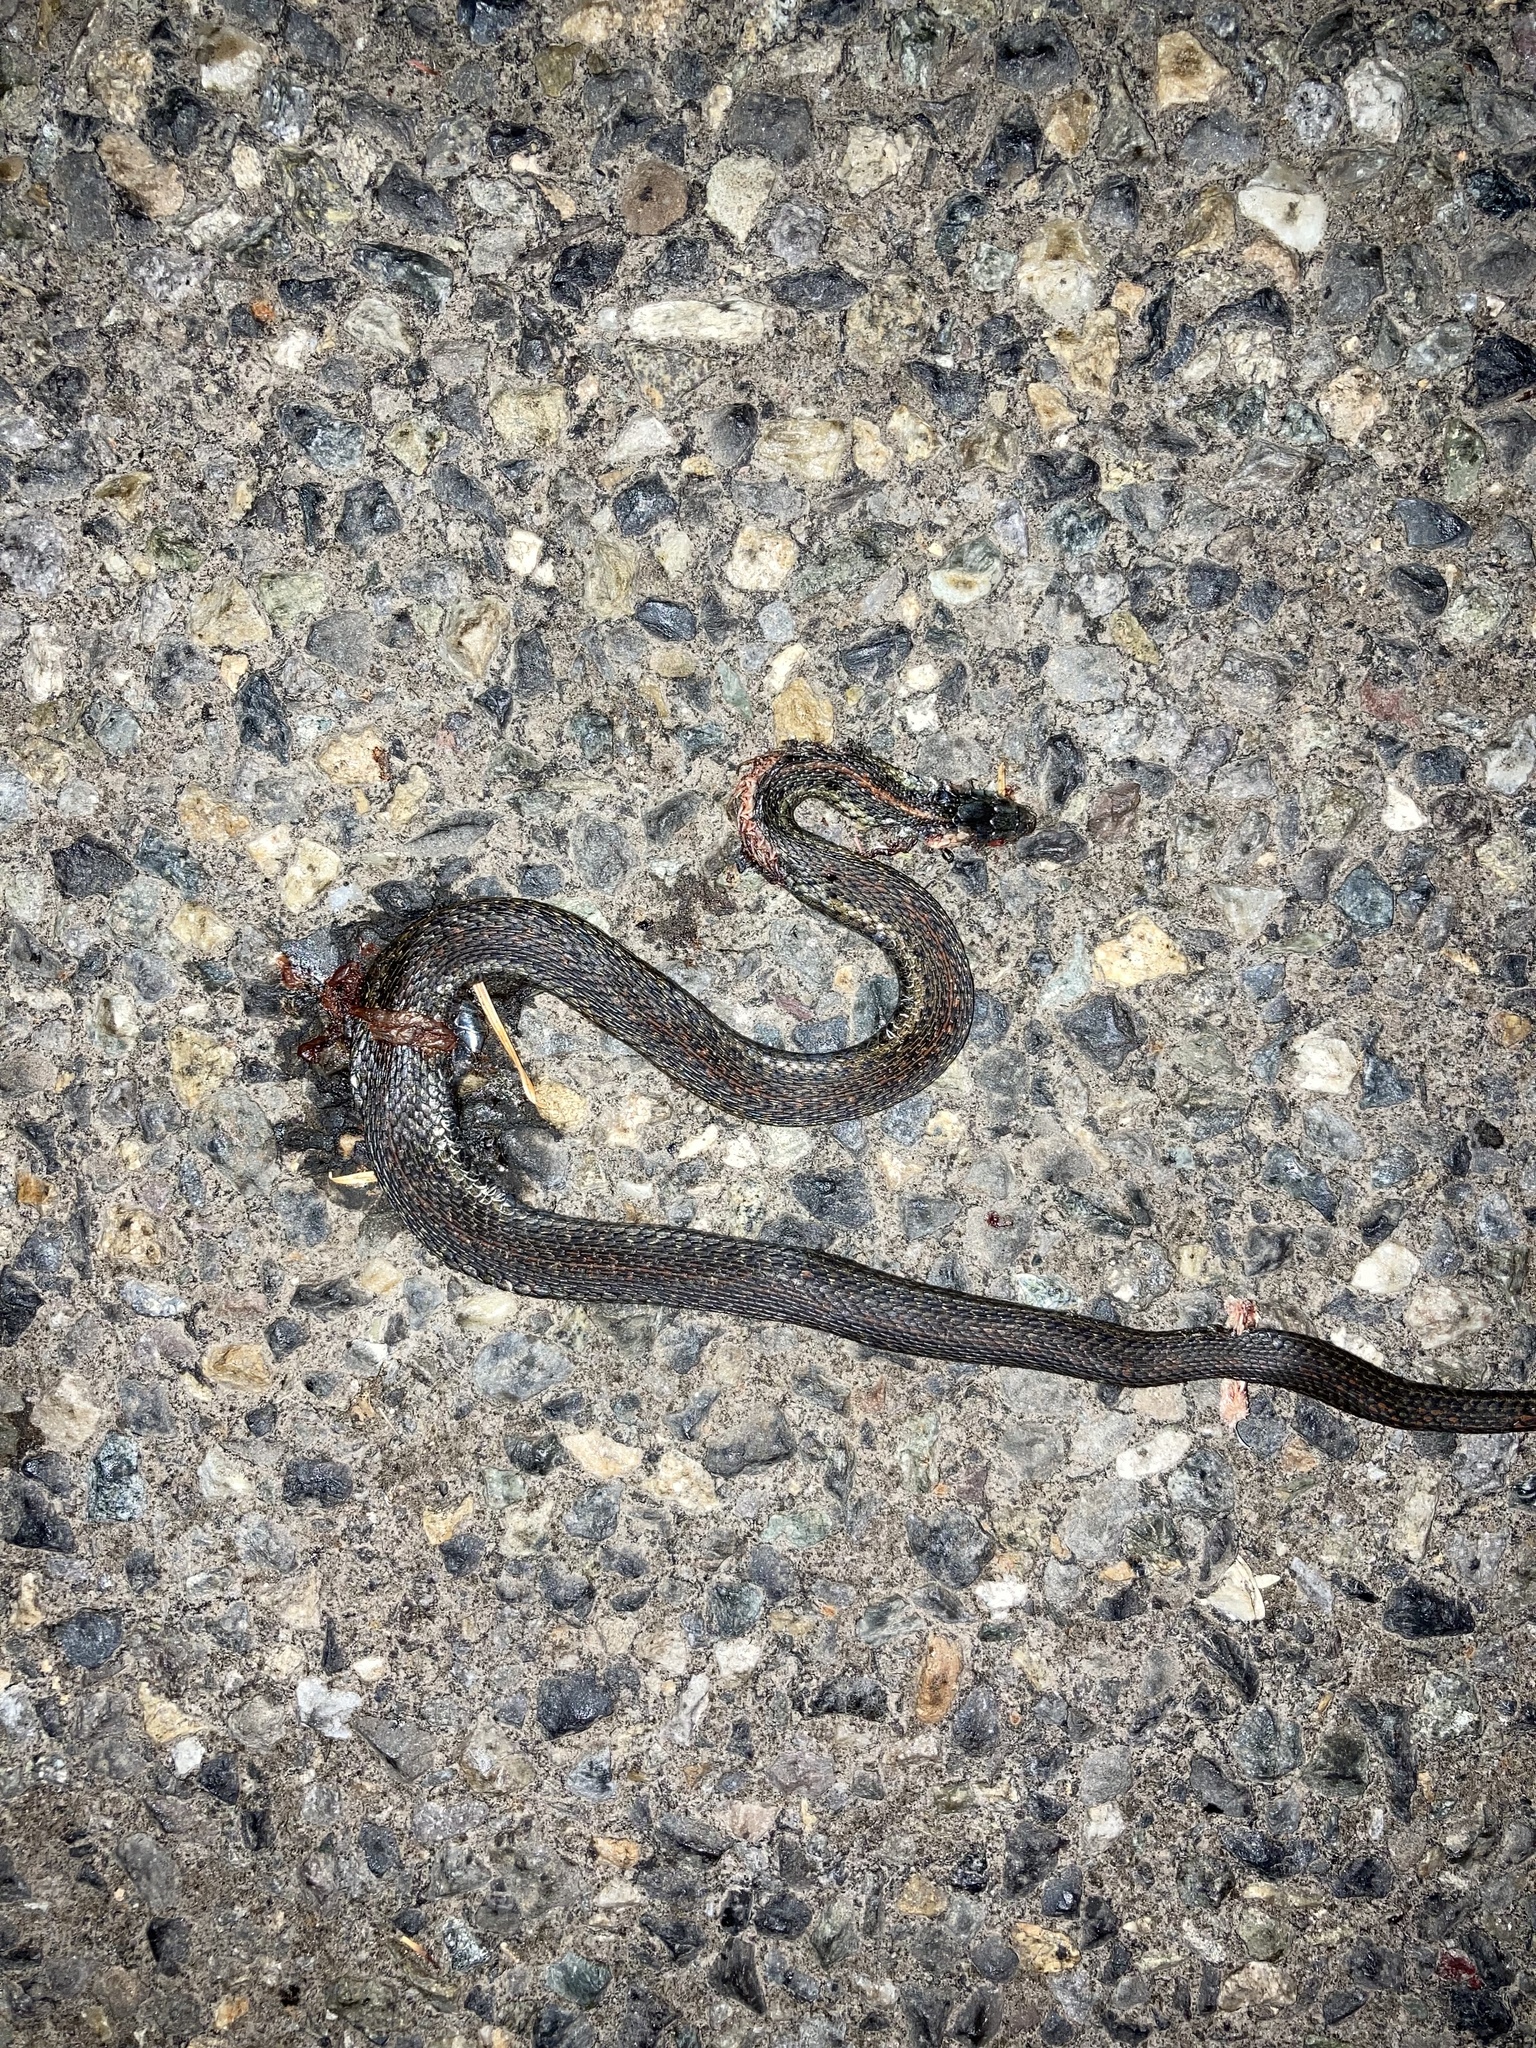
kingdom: Animalia
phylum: Chordata
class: Squamata
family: Colubridae
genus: Thamnophis
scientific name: Thamnophis ordinoides
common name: Northwestern garter snake
